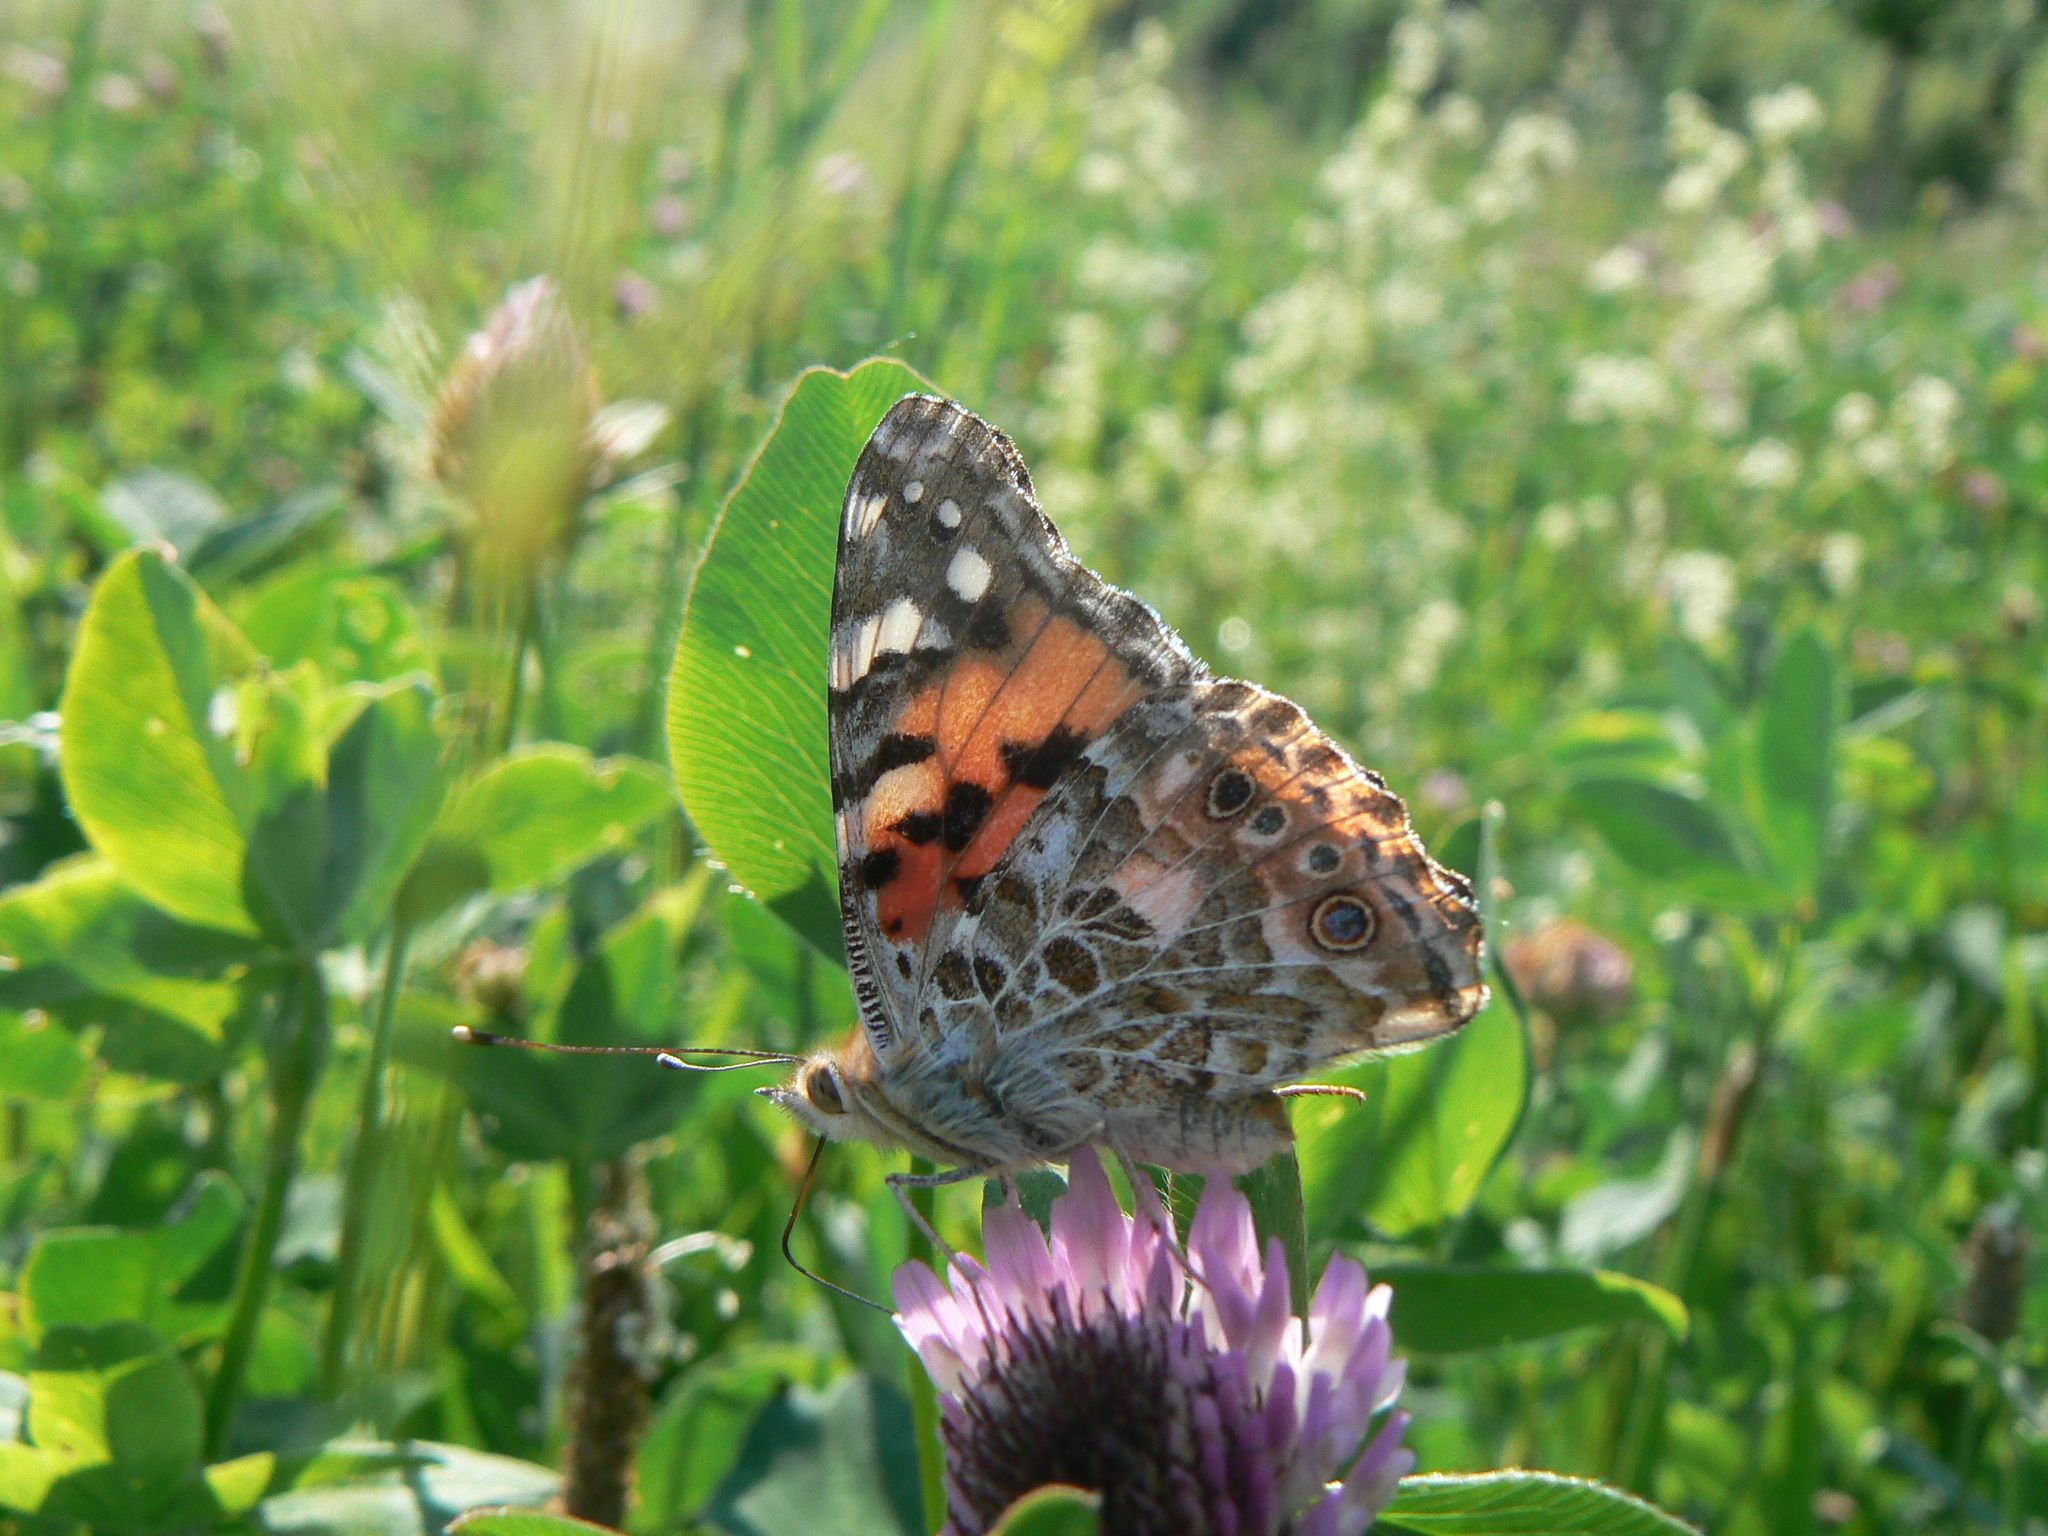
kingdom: Animalia
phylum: Arthropoda
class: Insecta
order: Lepidoptera
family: Nymphalidae
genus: Vanessa
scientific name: Vanessa cardui
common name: Painted lady
